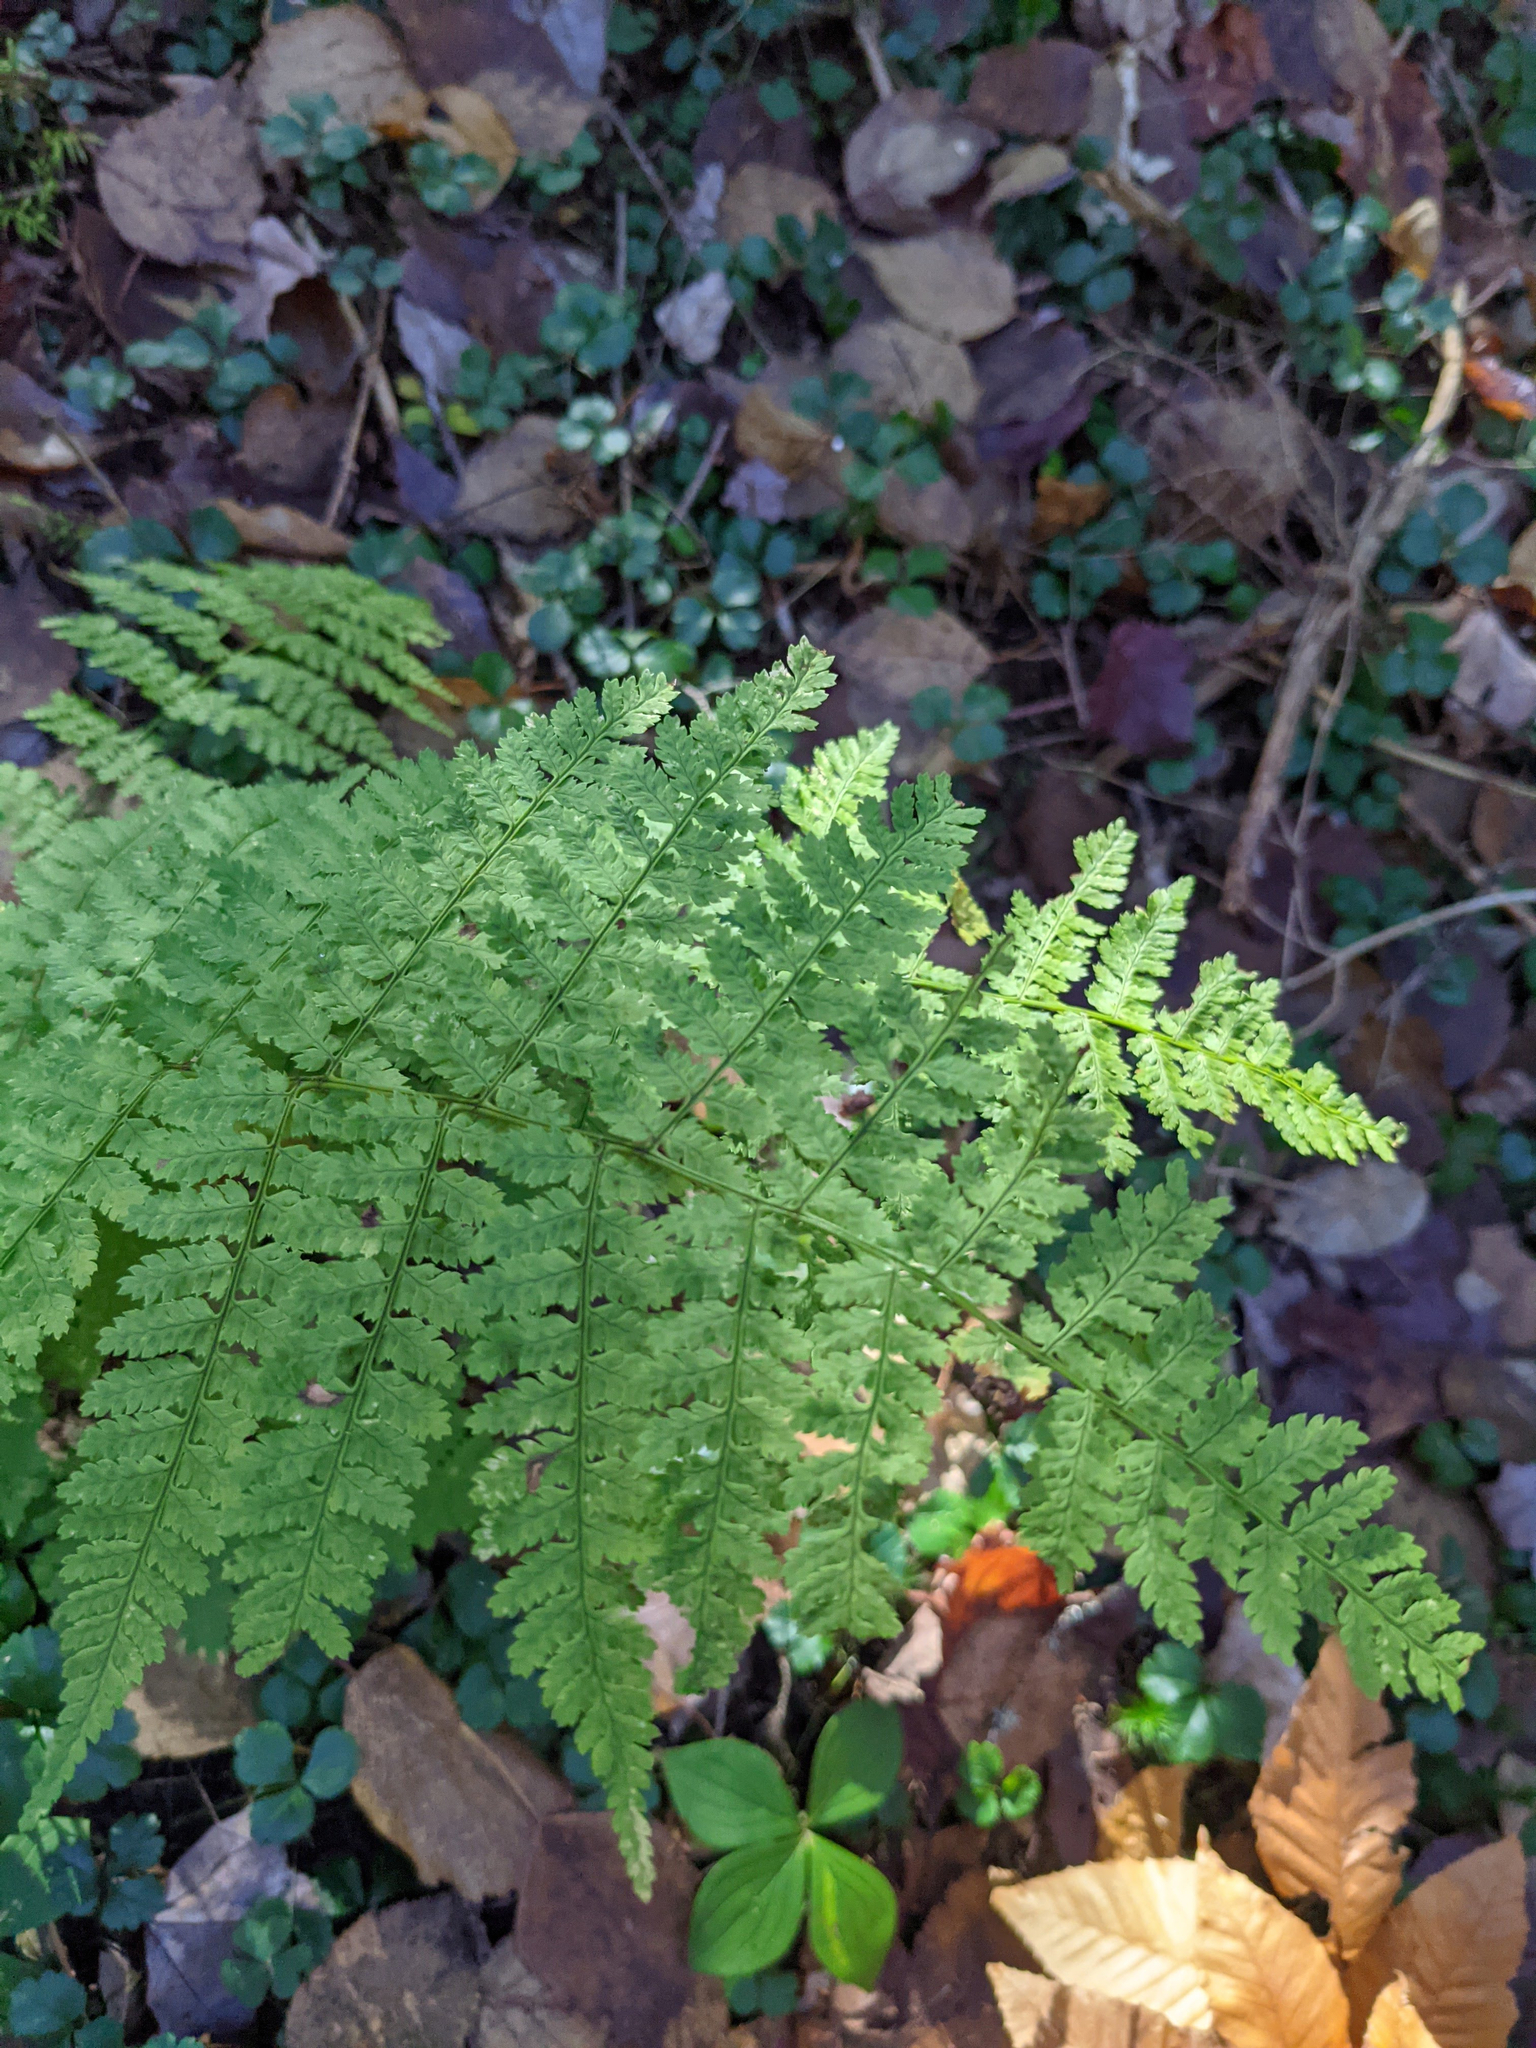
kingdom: Plantae
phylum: Tracheophyta
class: Polypodiopsida
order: Polypodiales
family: Dryopteridaceae
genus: Dryopteris
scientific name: Dryopteris intermedia
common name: Evergreen wood fern
